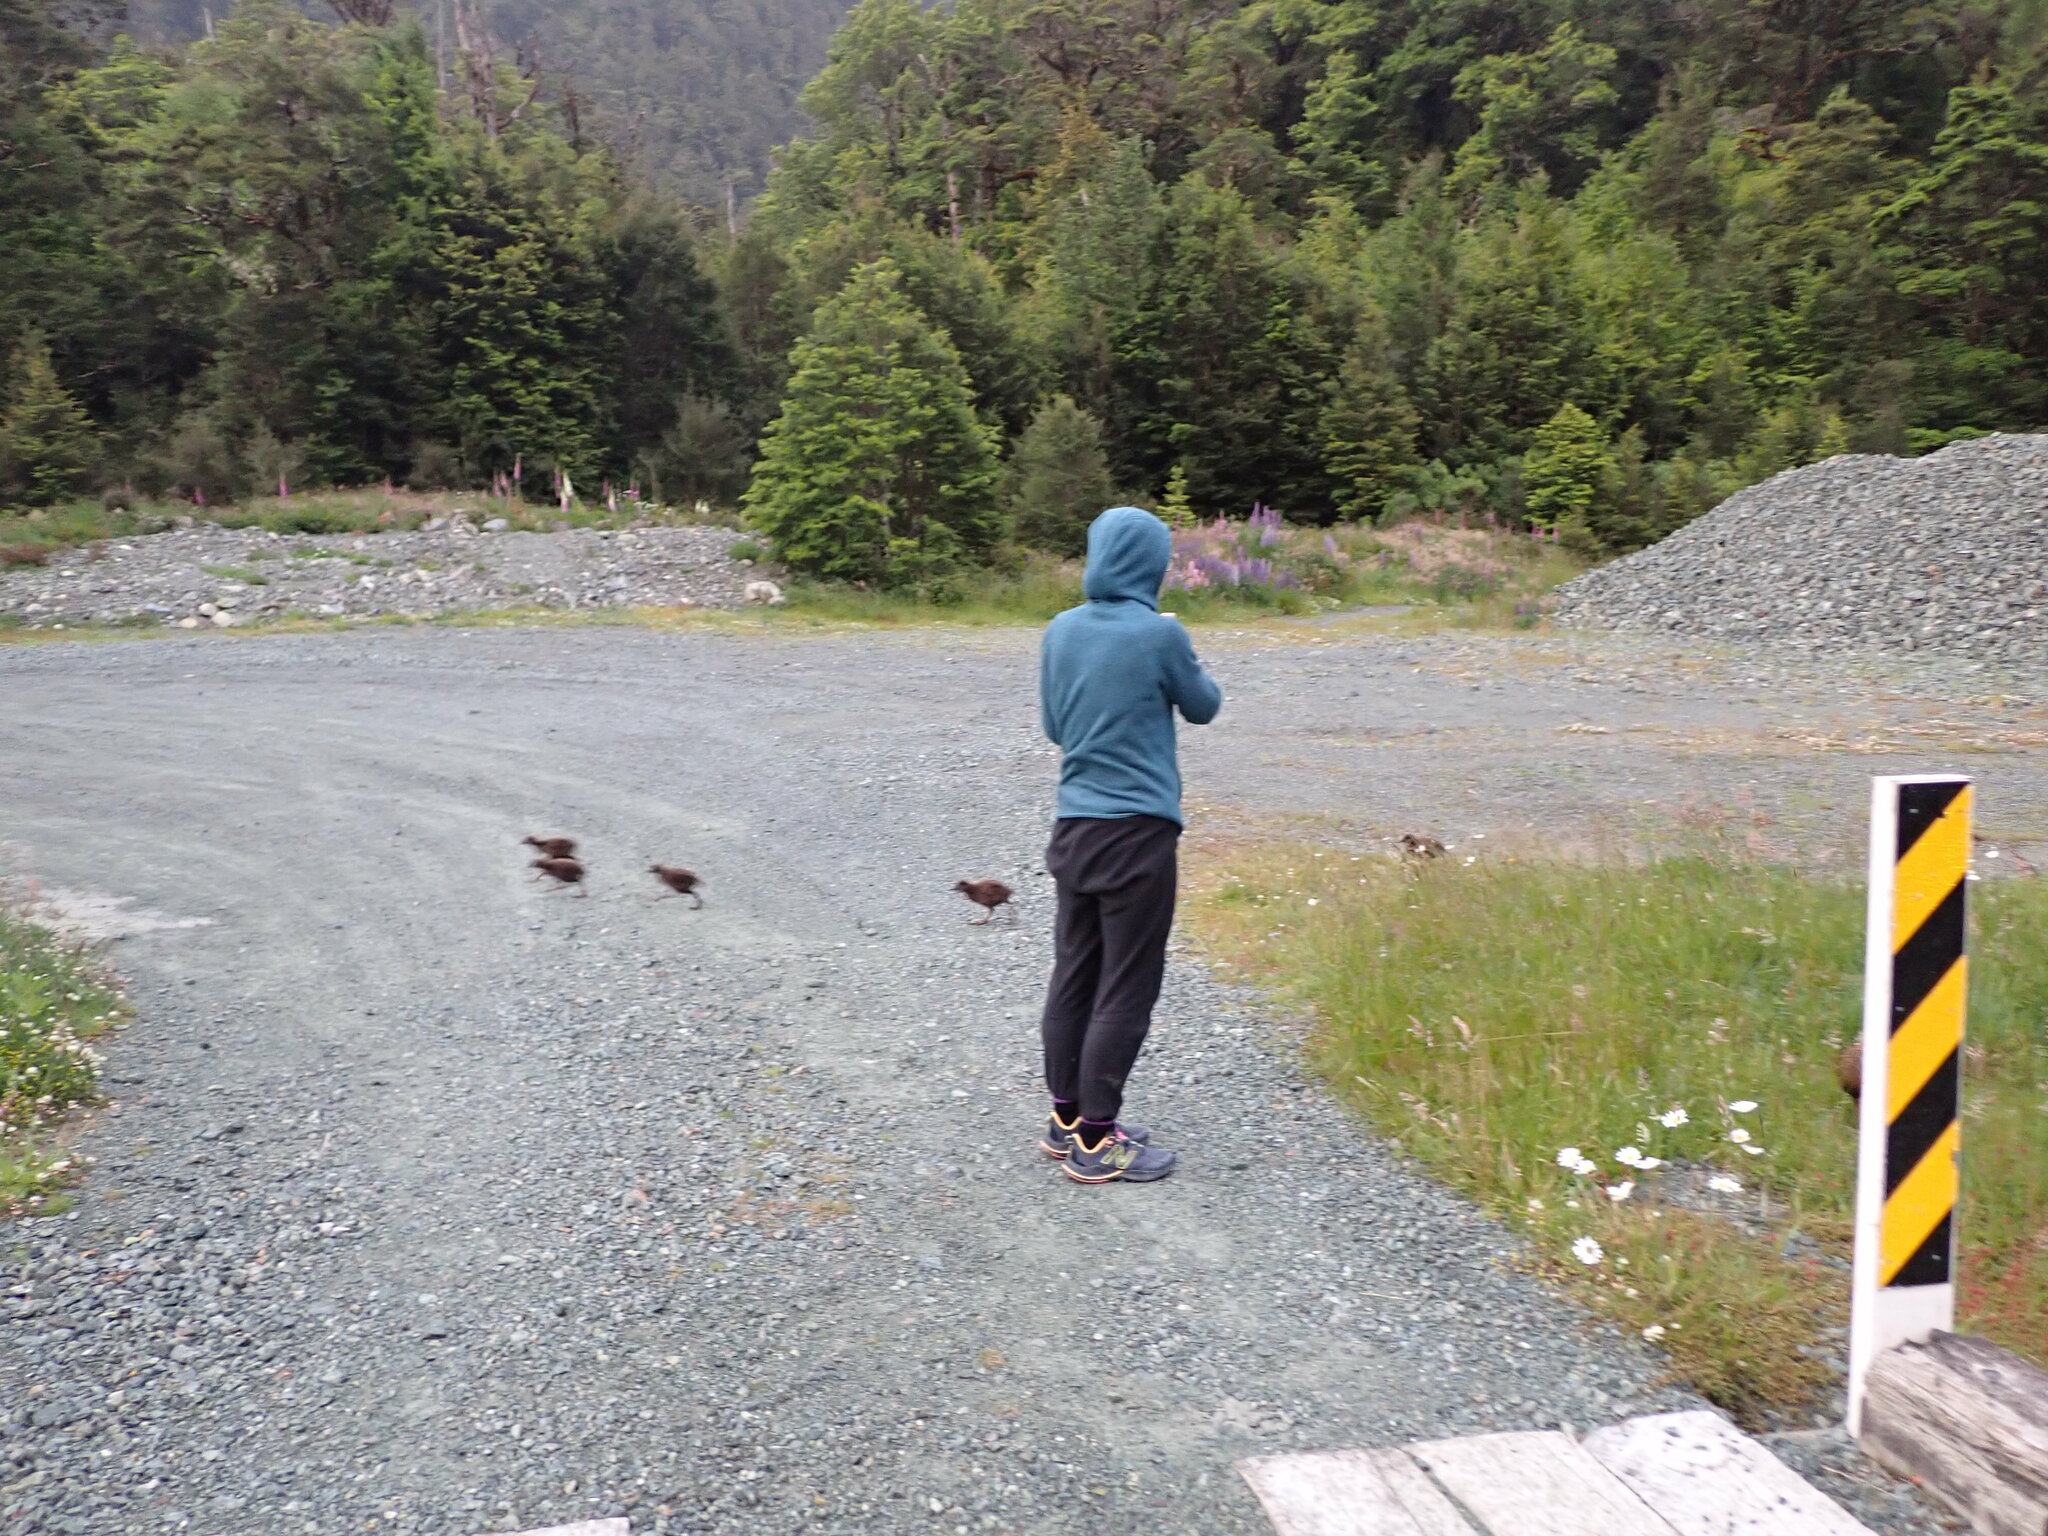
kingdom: Animalia
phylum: Chordata
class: Aves
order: Gruiformes
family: Rallidae
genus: Gallirallus
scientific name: Gallirallus australis
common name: Weka
